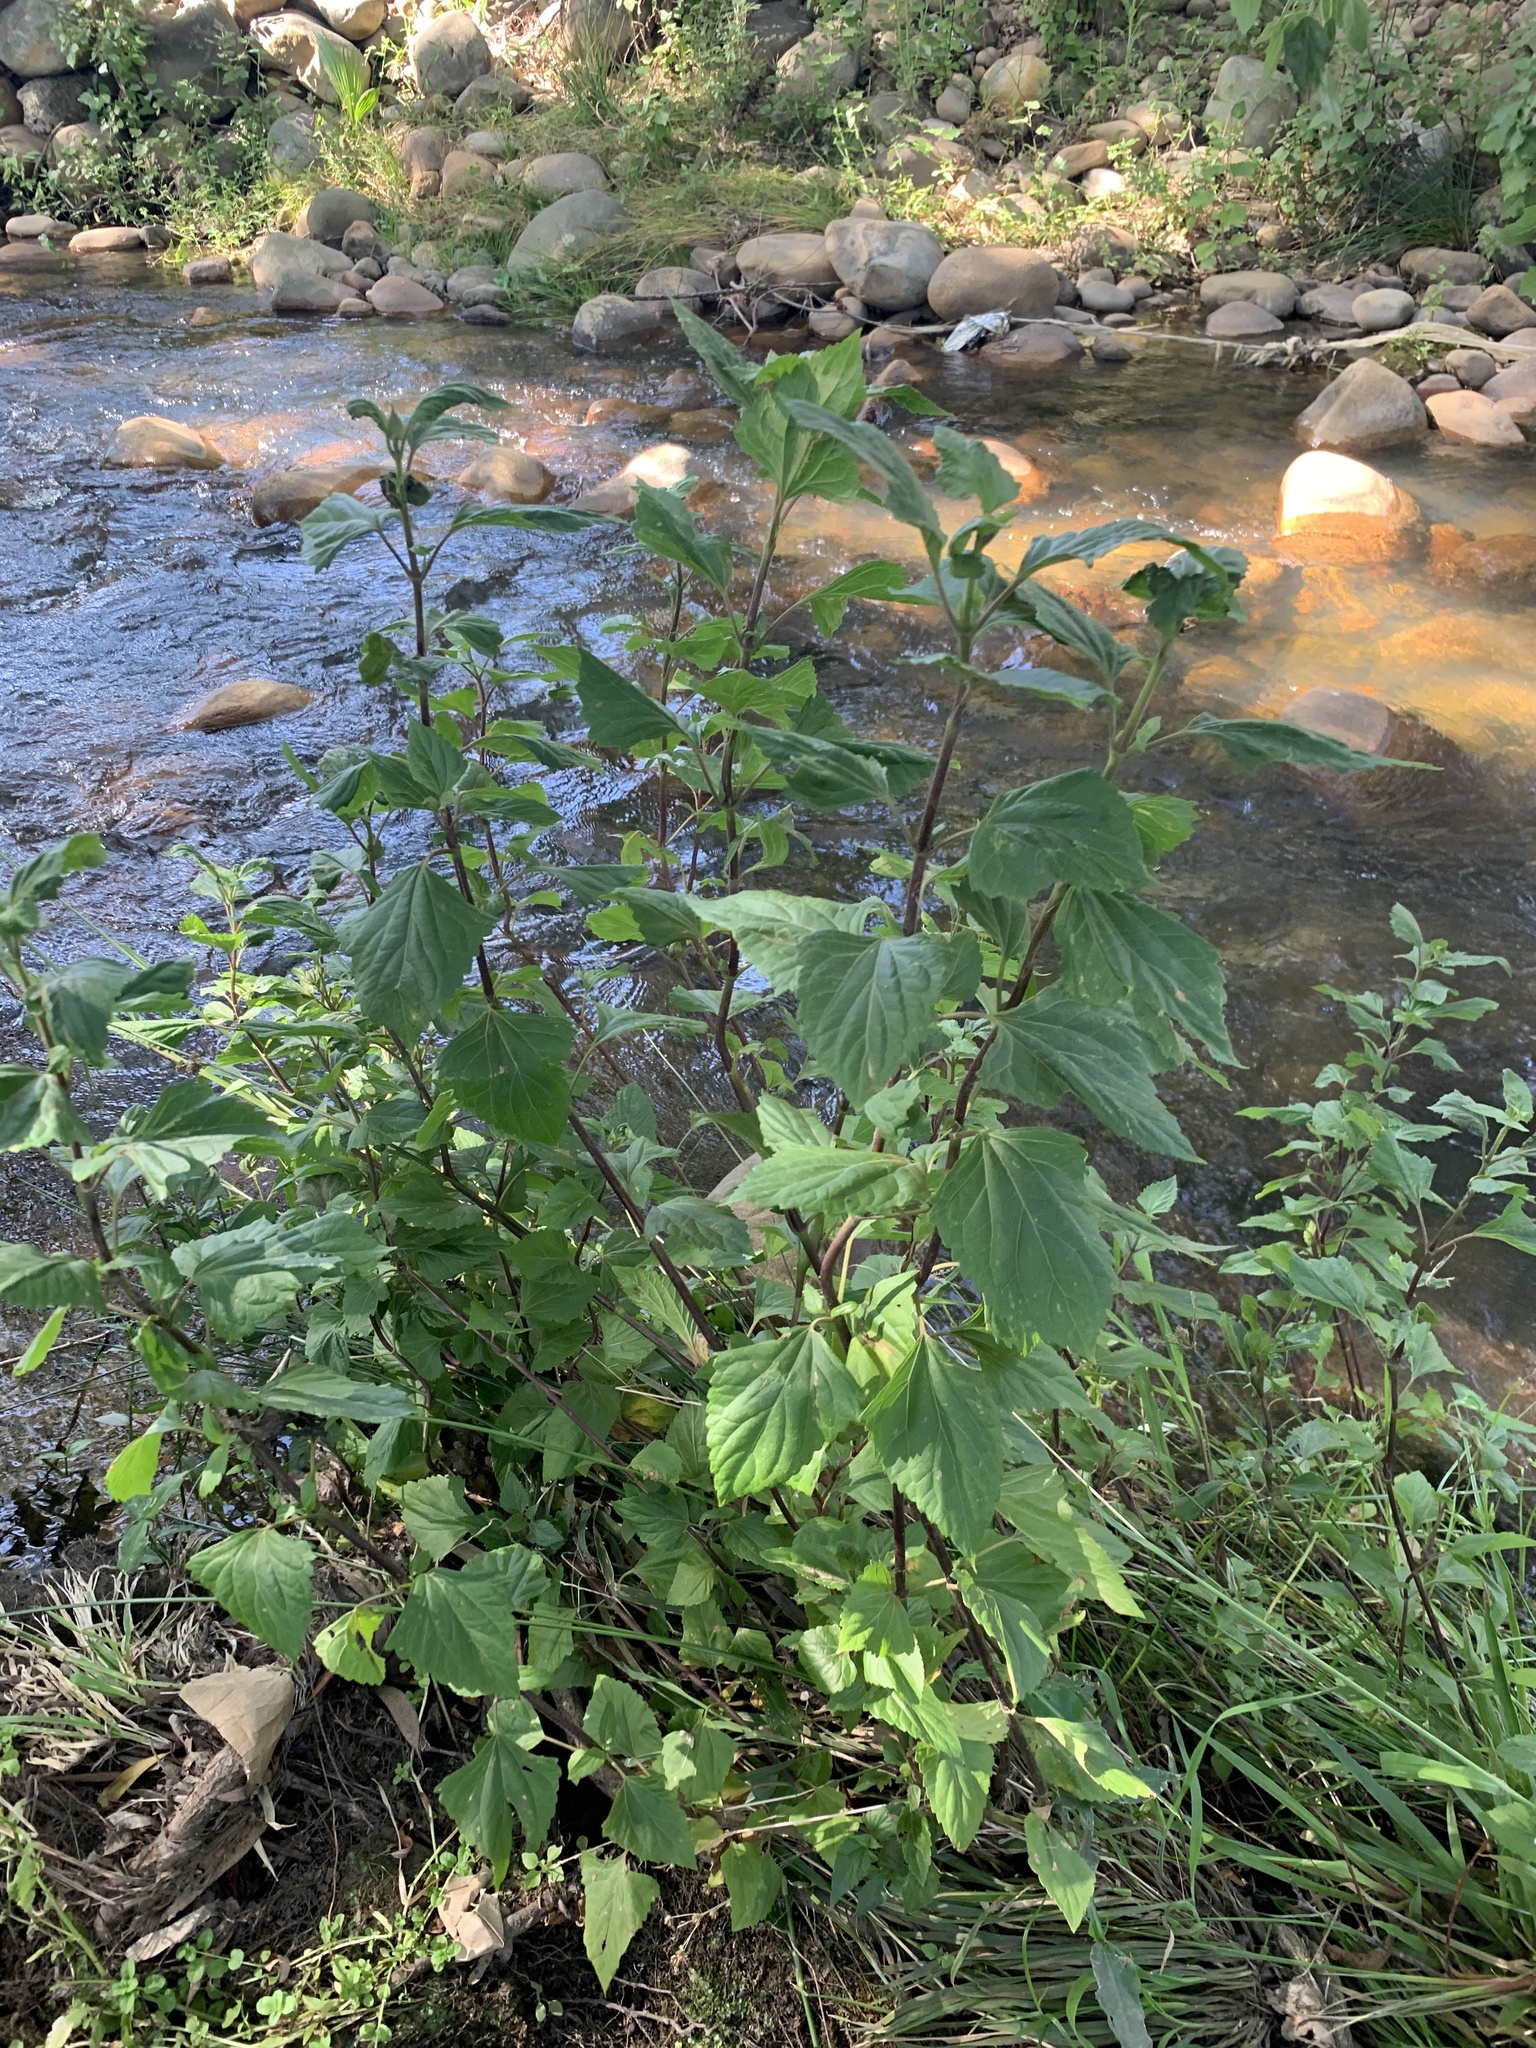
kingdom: Plantae
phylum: Tracheophyta
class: Magnoliopsida
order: Asterales
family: Asteraceae
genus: Ageratina
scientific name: Ageratina adenophora
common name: Sticky snakeroot
